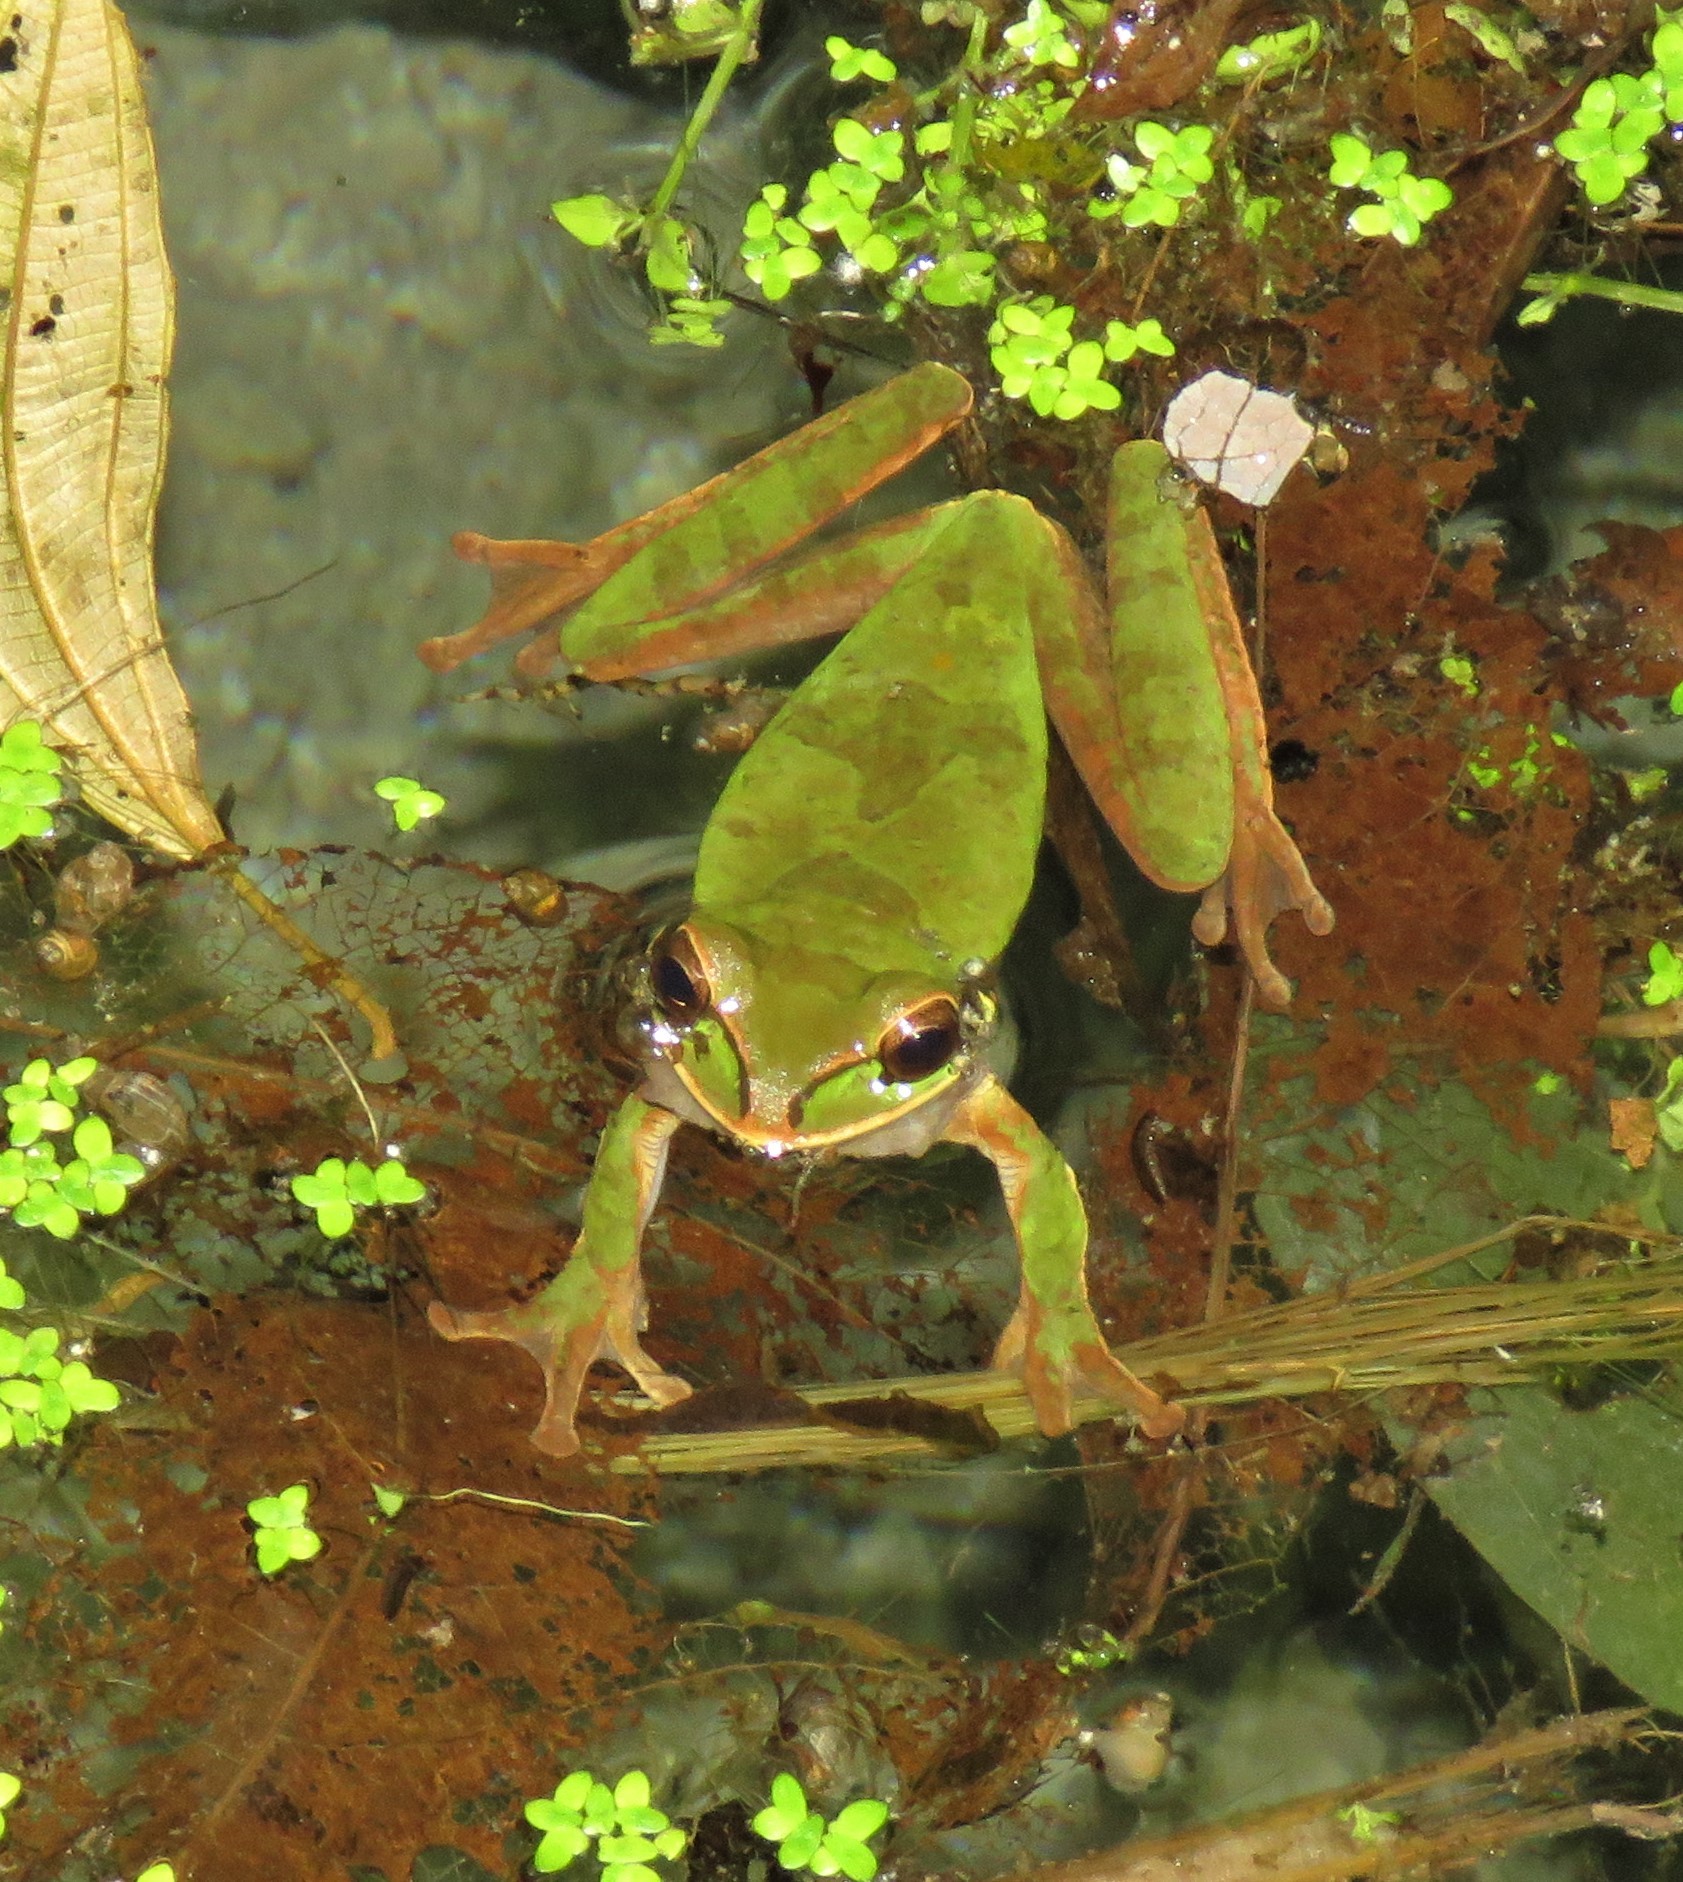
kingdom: Animalia
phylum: Chordata
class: Amphibia
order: Anura
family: Hylidae
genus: Smilisca
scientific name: Smilisca phaeota
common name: Central american smilisca
